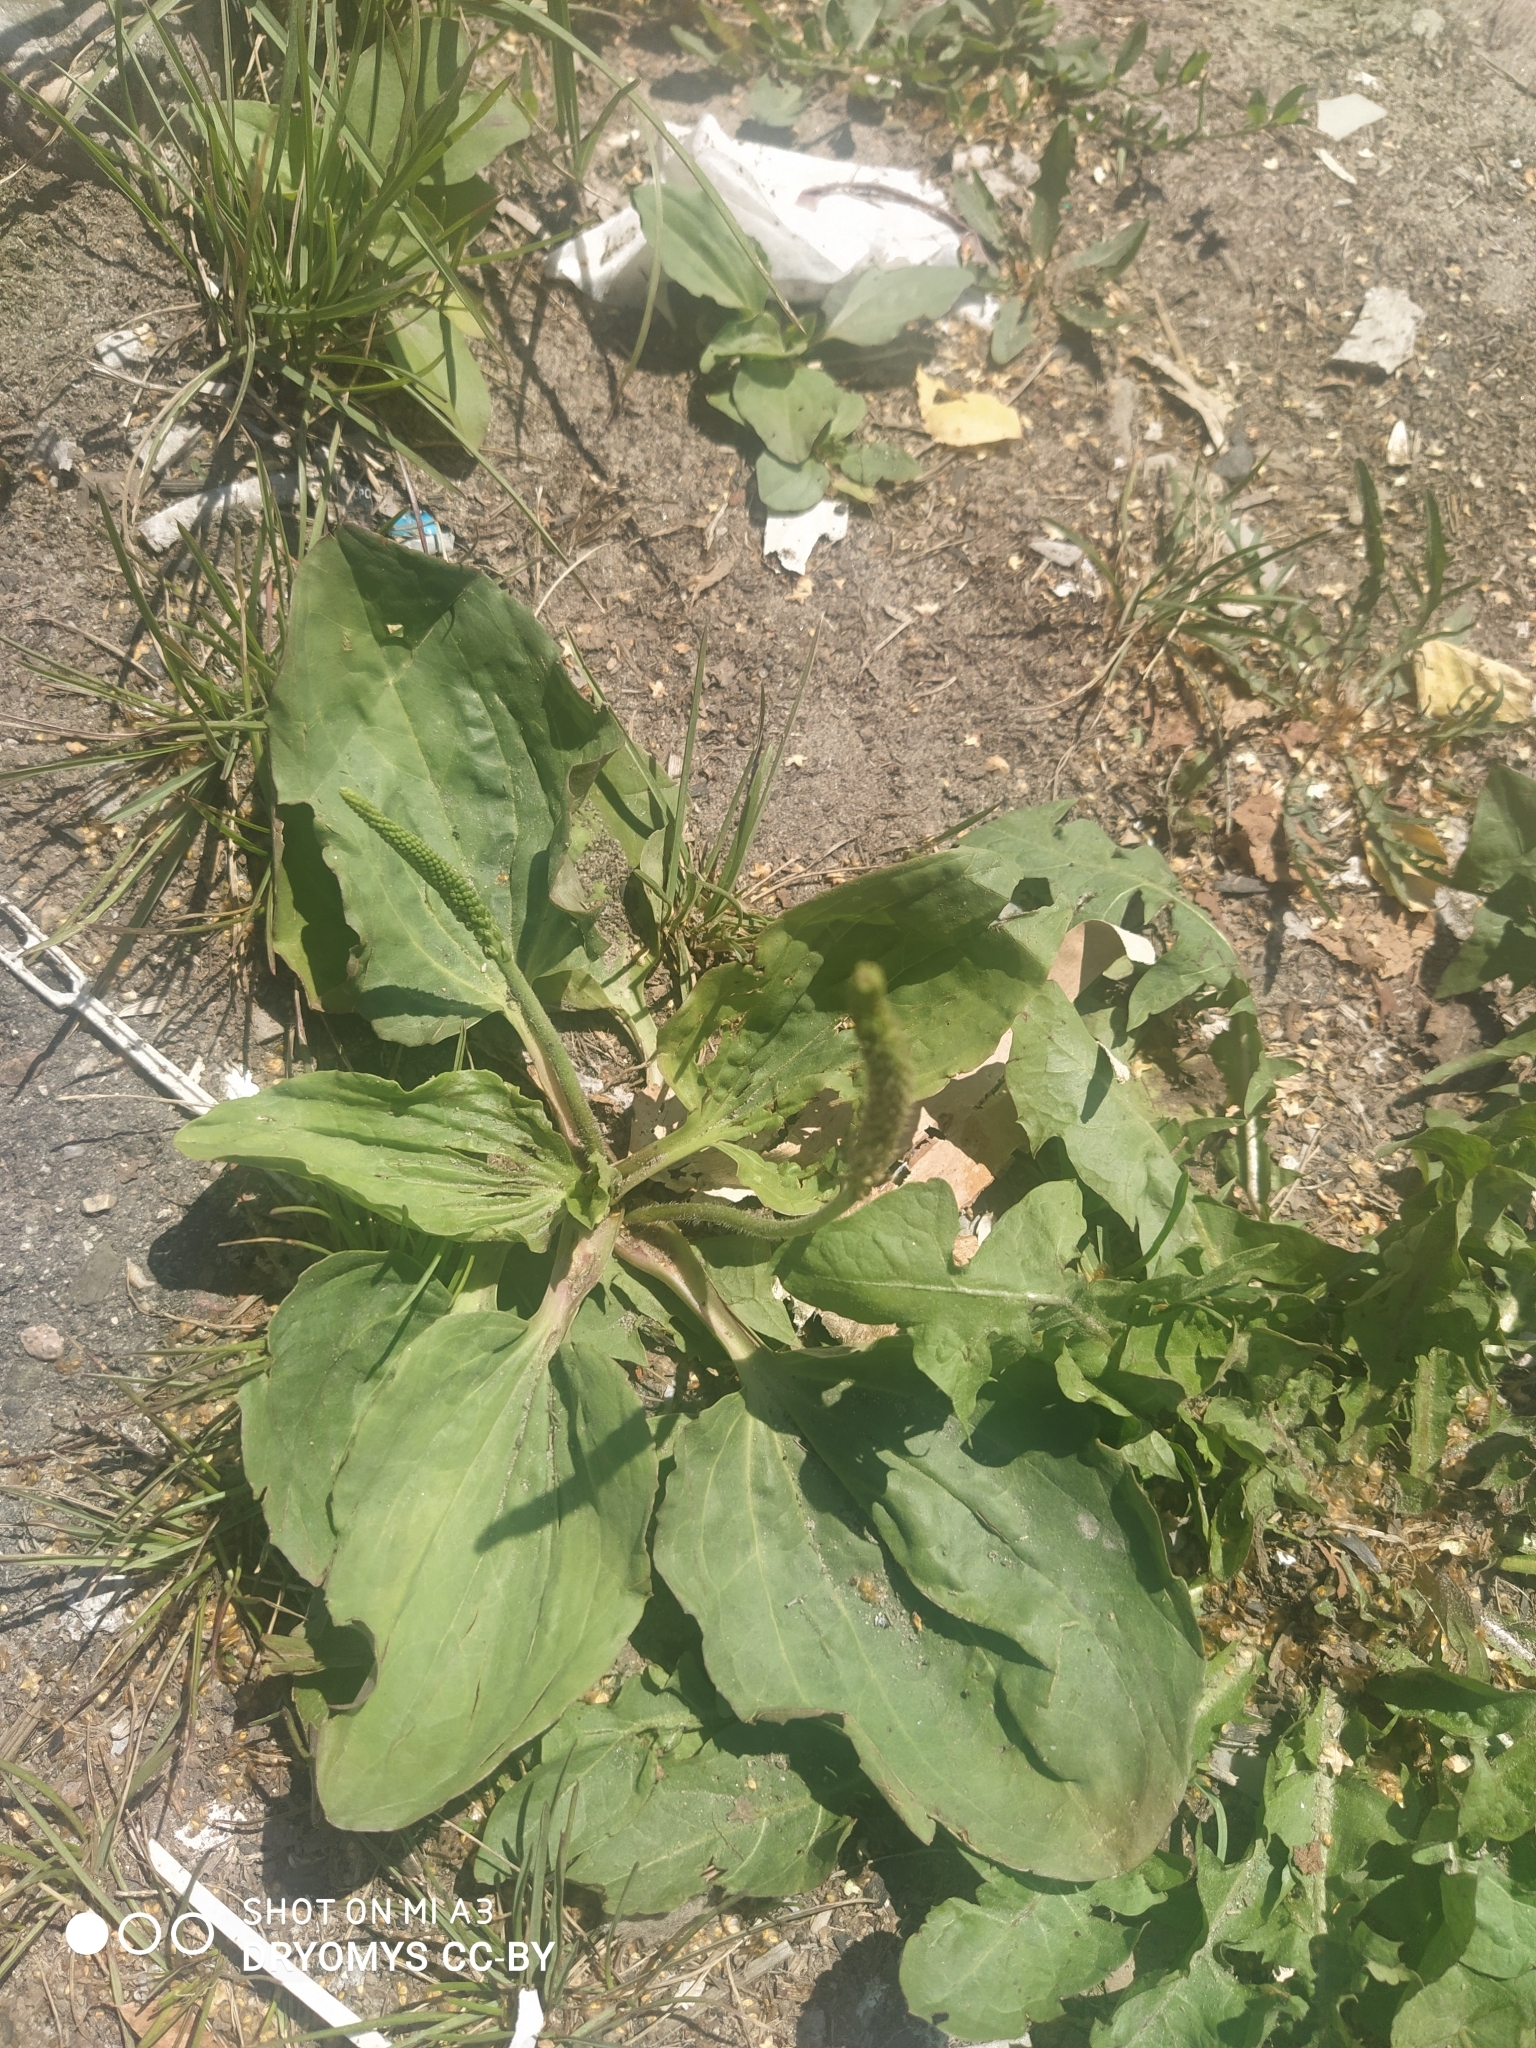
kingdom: Plantae
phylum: Tracheophyta
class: Magnoliopsida
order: Lamiales
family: Plantaginaceae
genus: Plantago
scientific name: Plantago major
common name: Common plantain
